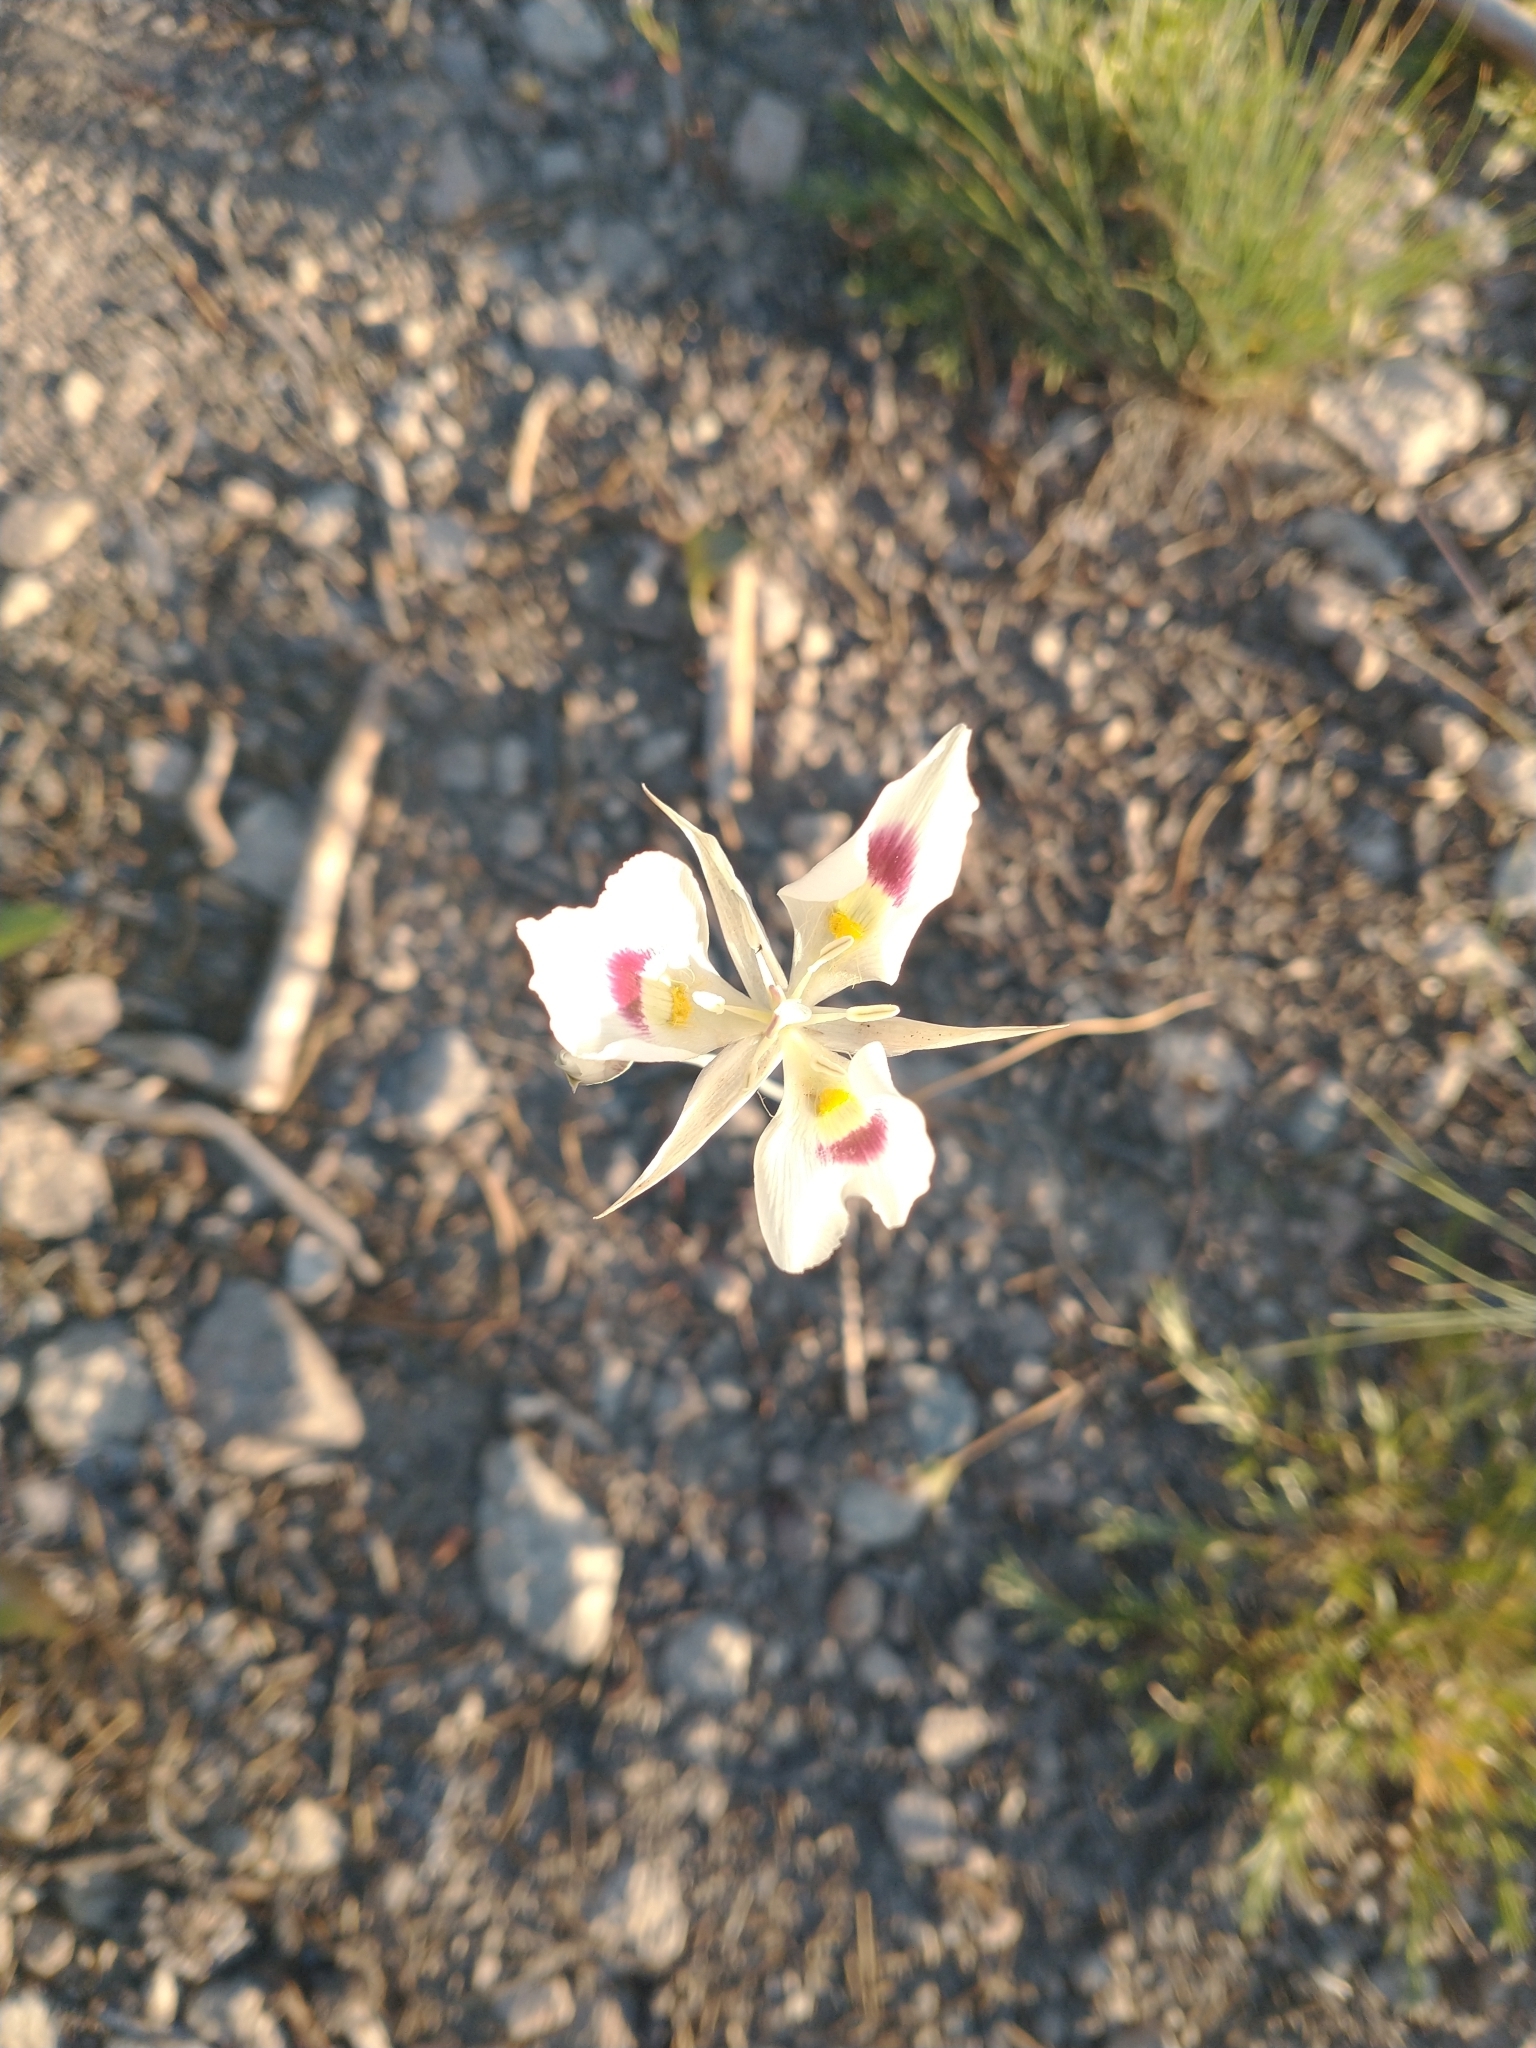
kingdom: Plantae
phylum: Tracheophyta
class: Liliopsida
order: Liliales
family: Liliaceae
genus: Calochortus
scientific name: Calochortus eurycarpus
